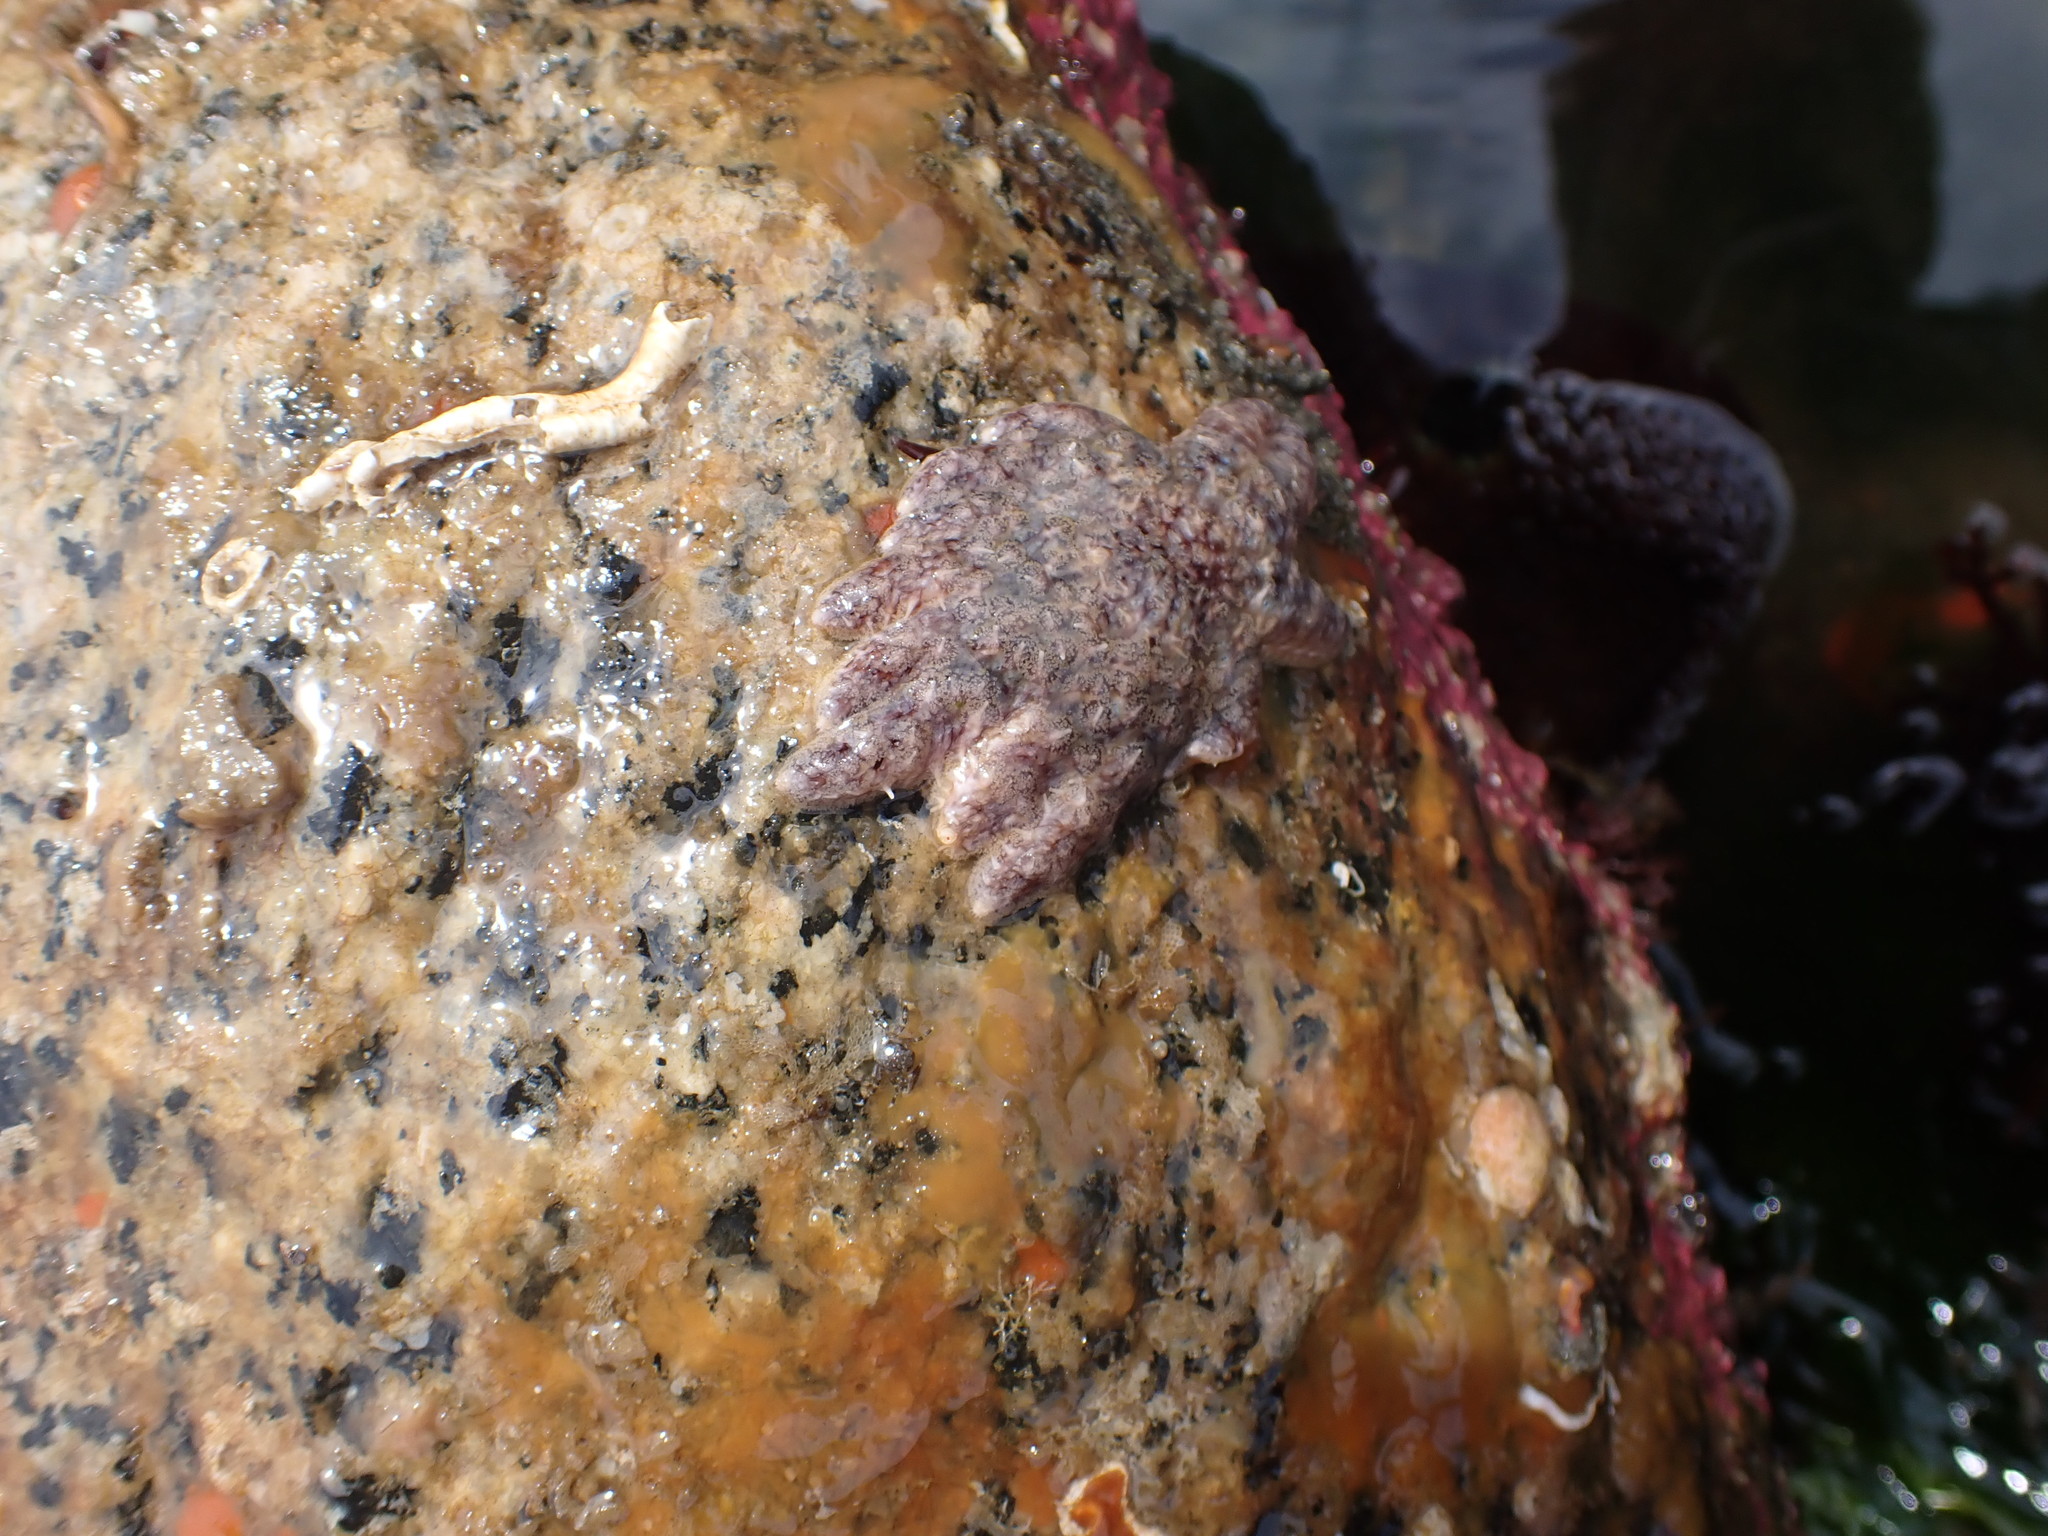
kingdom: Animalia
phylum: Echinodermata
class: Asteroidea
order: Forcipulatida
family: Asteriidae
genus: Pycnopodia
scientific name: Pycnopodia helianthoides
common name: Rag mop
